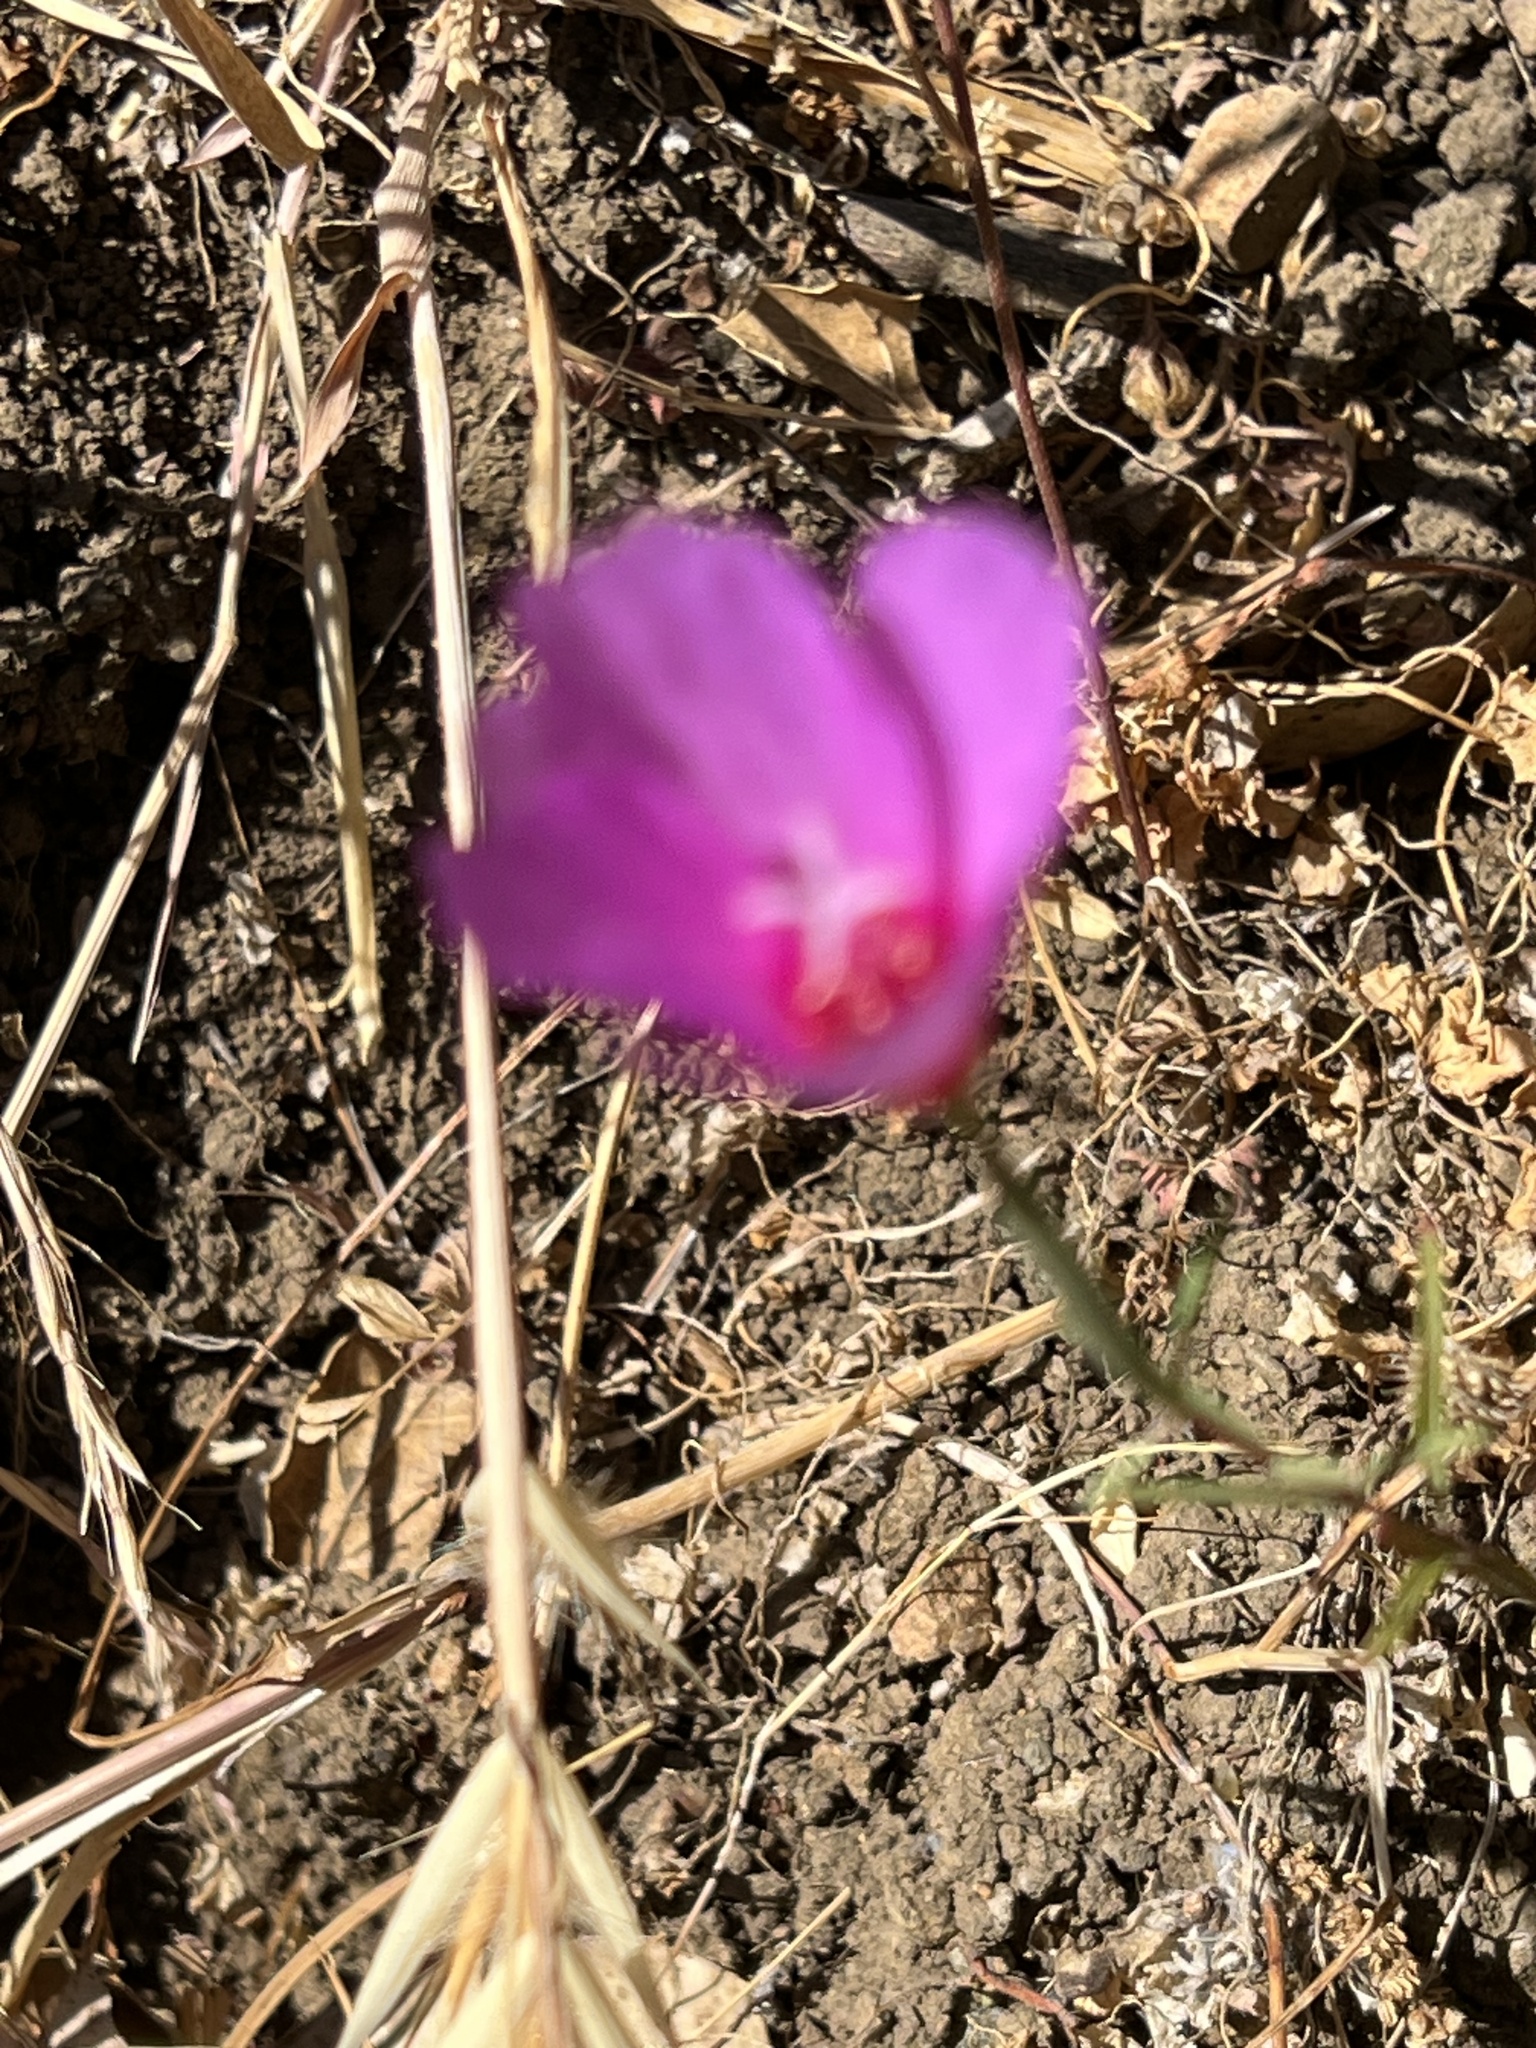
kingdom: Plantae
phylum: Tracheophyta
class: Magnoliopsida
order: Myrtales
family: Onagraceae
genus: Clarkia
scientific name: Clarkia rubicunda
